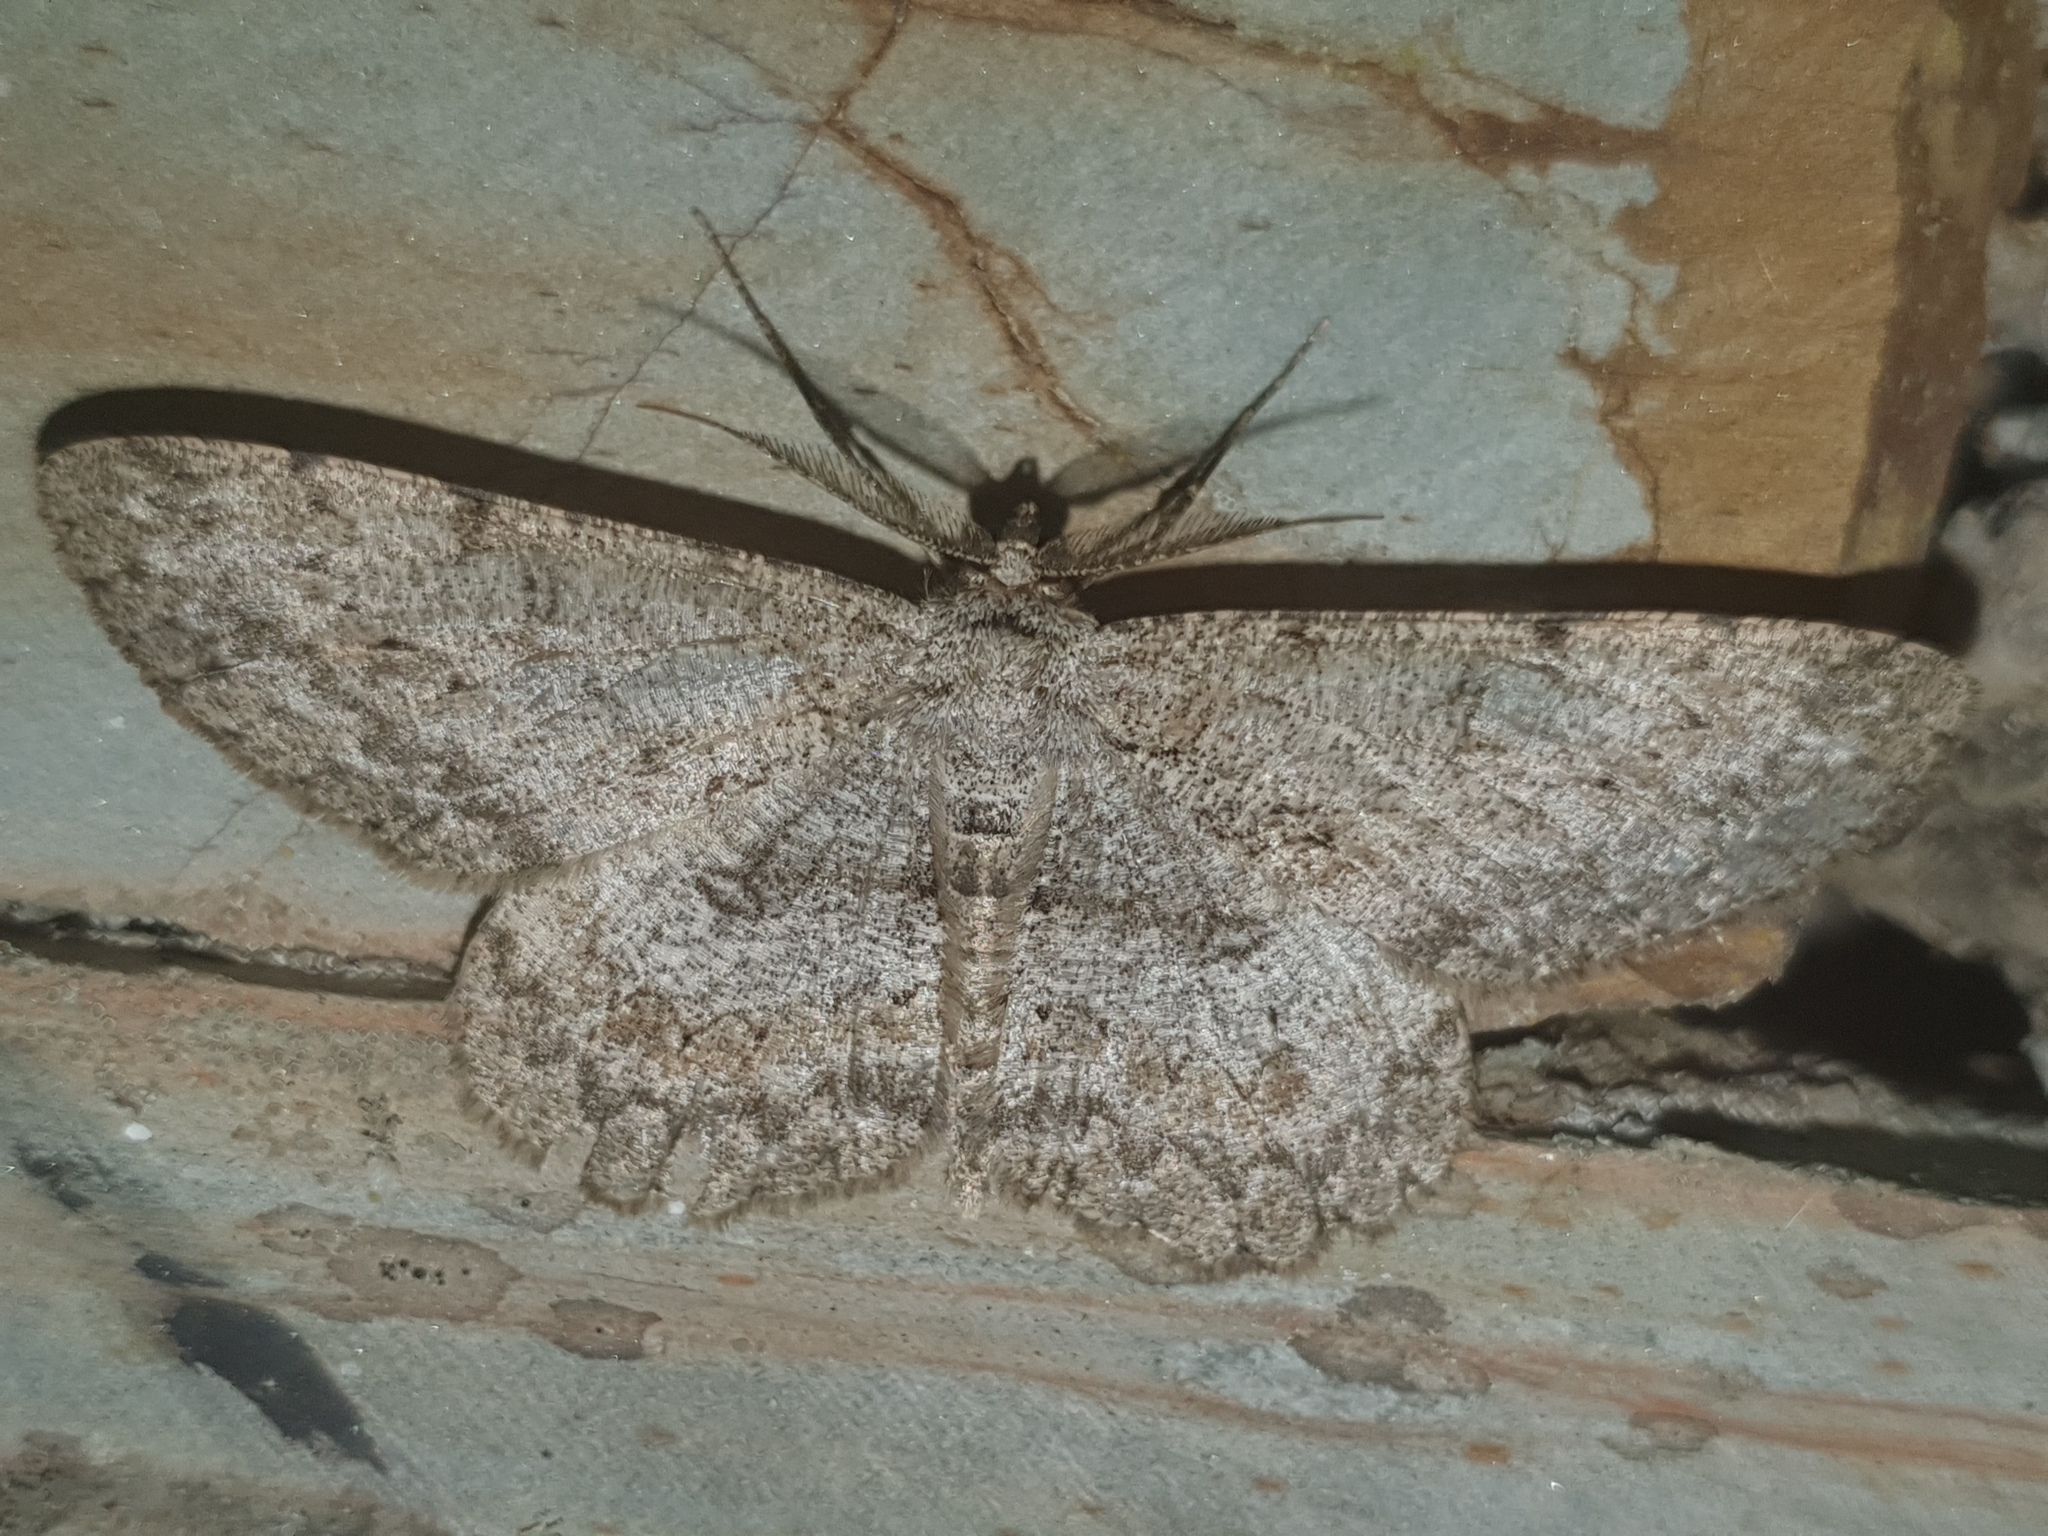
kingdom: Animalia
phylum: Arthropoda
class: Insecta
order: Lepidoptera
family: Geometridae
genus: Hypomecis
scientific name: Hypomecis punctinalis
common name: Pale oak beauty
